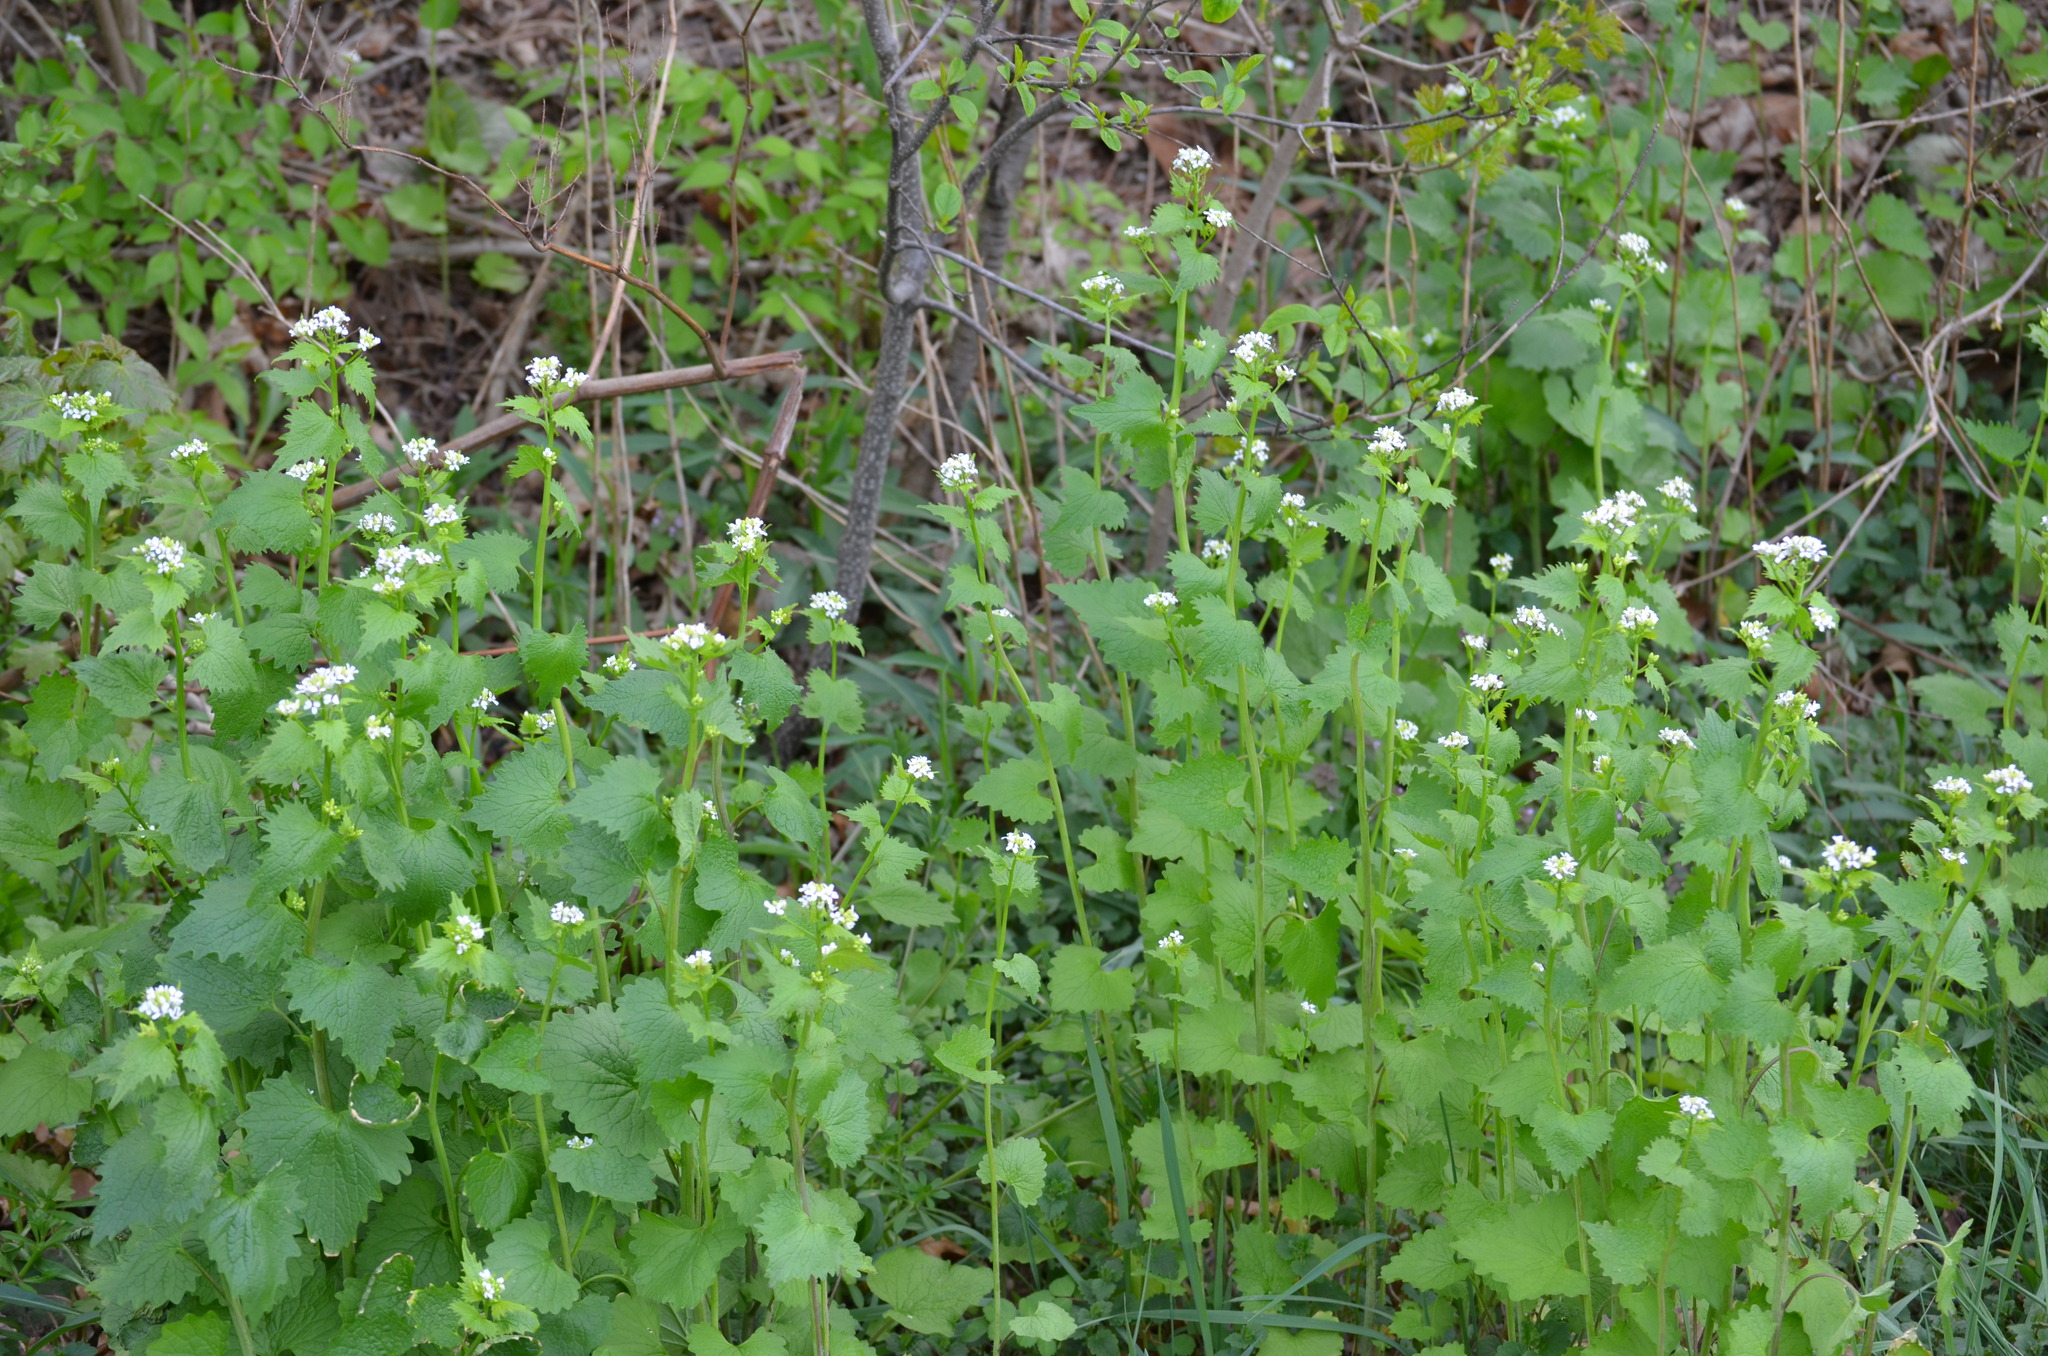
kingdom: Plantae
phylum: Tracheophyta
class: Magnoliopsida
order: Brassicales
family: Brassicaceae
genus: Alliaria
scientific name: Alliaria petiolata
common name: Garlic mustard
